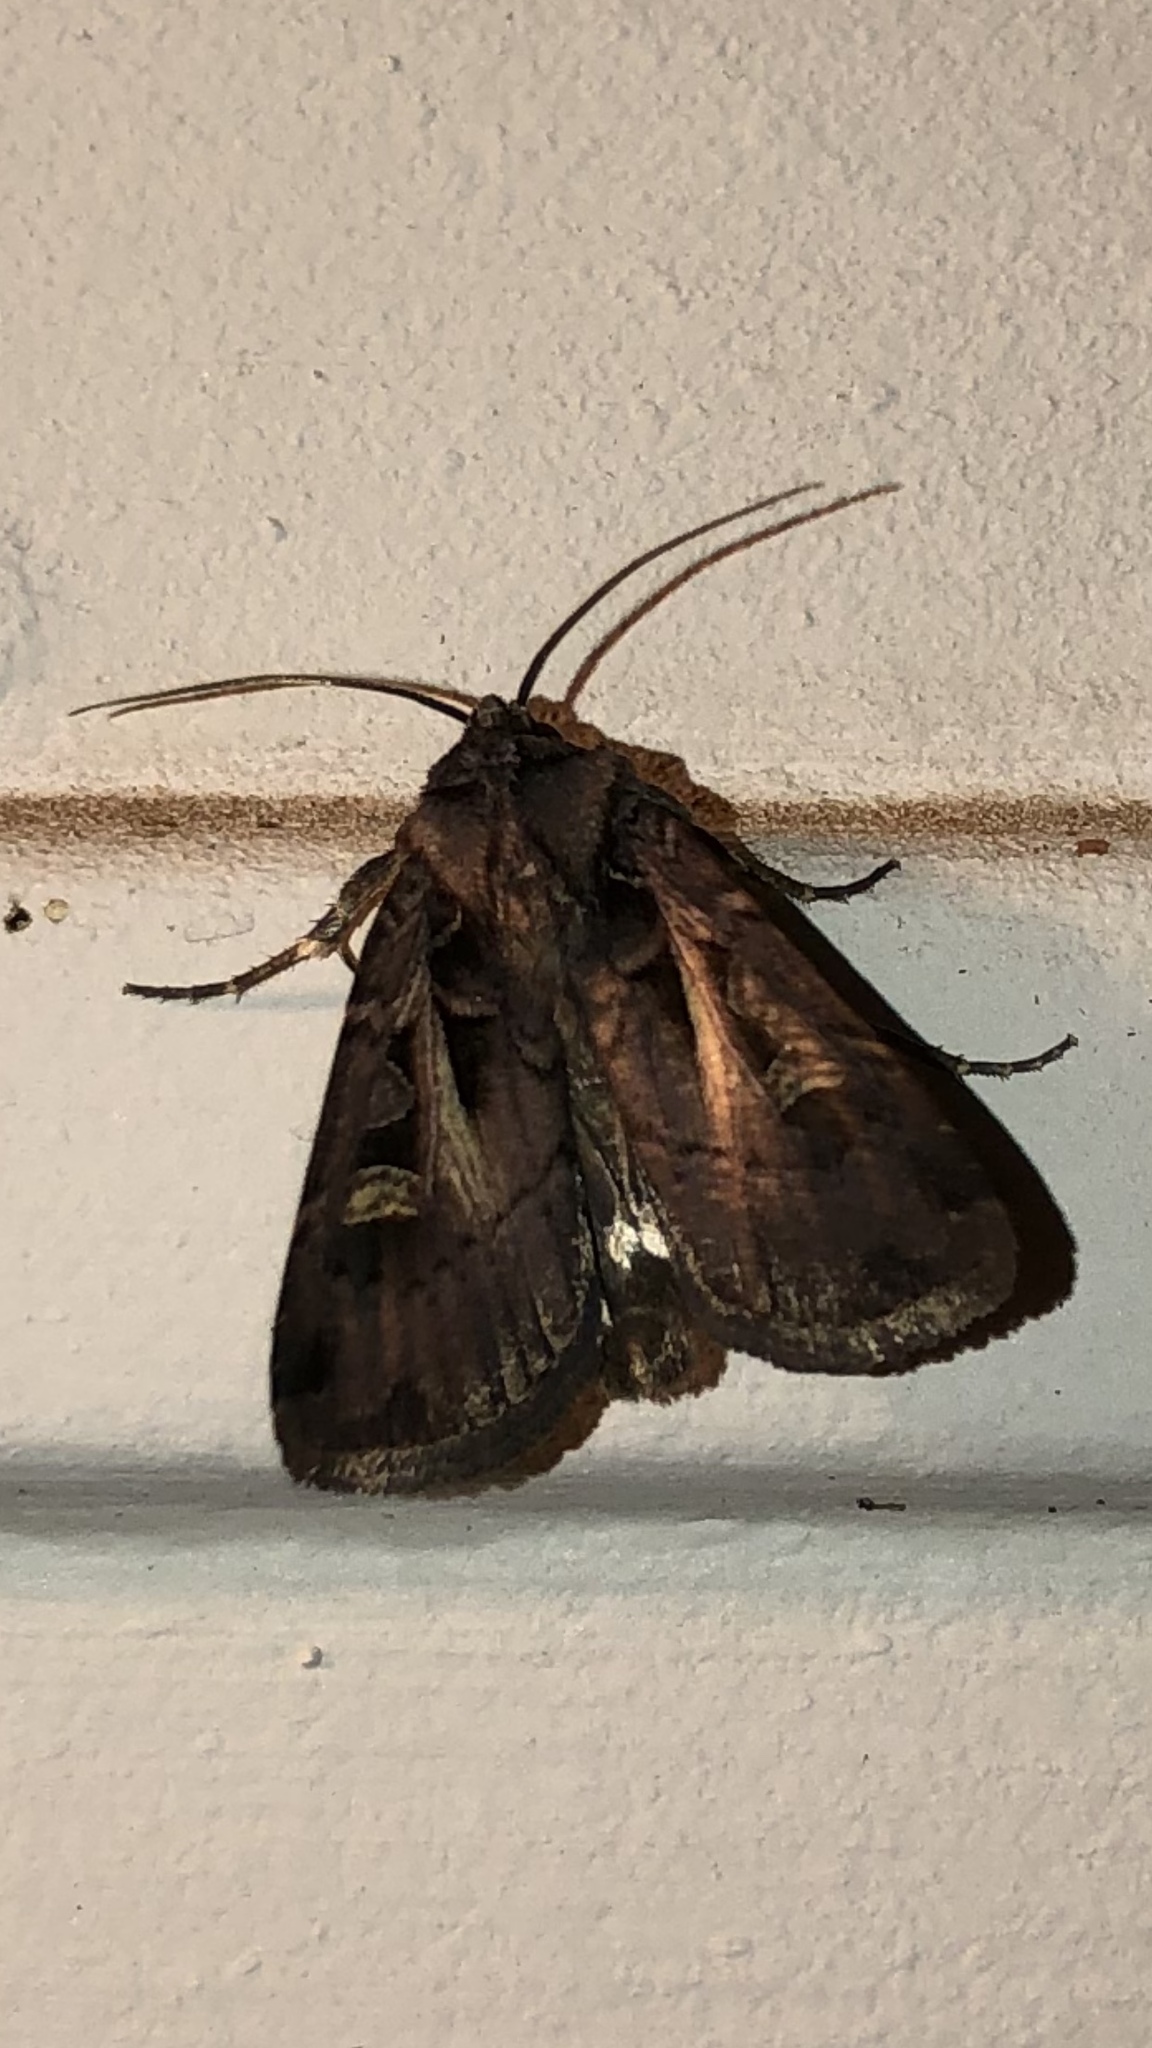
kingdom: Animalia
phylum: Arthropoda
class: Insecta
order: Lepidoptera
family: Noctuidae
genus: Feltia
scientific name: Feltia herilis
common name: Master's dart
